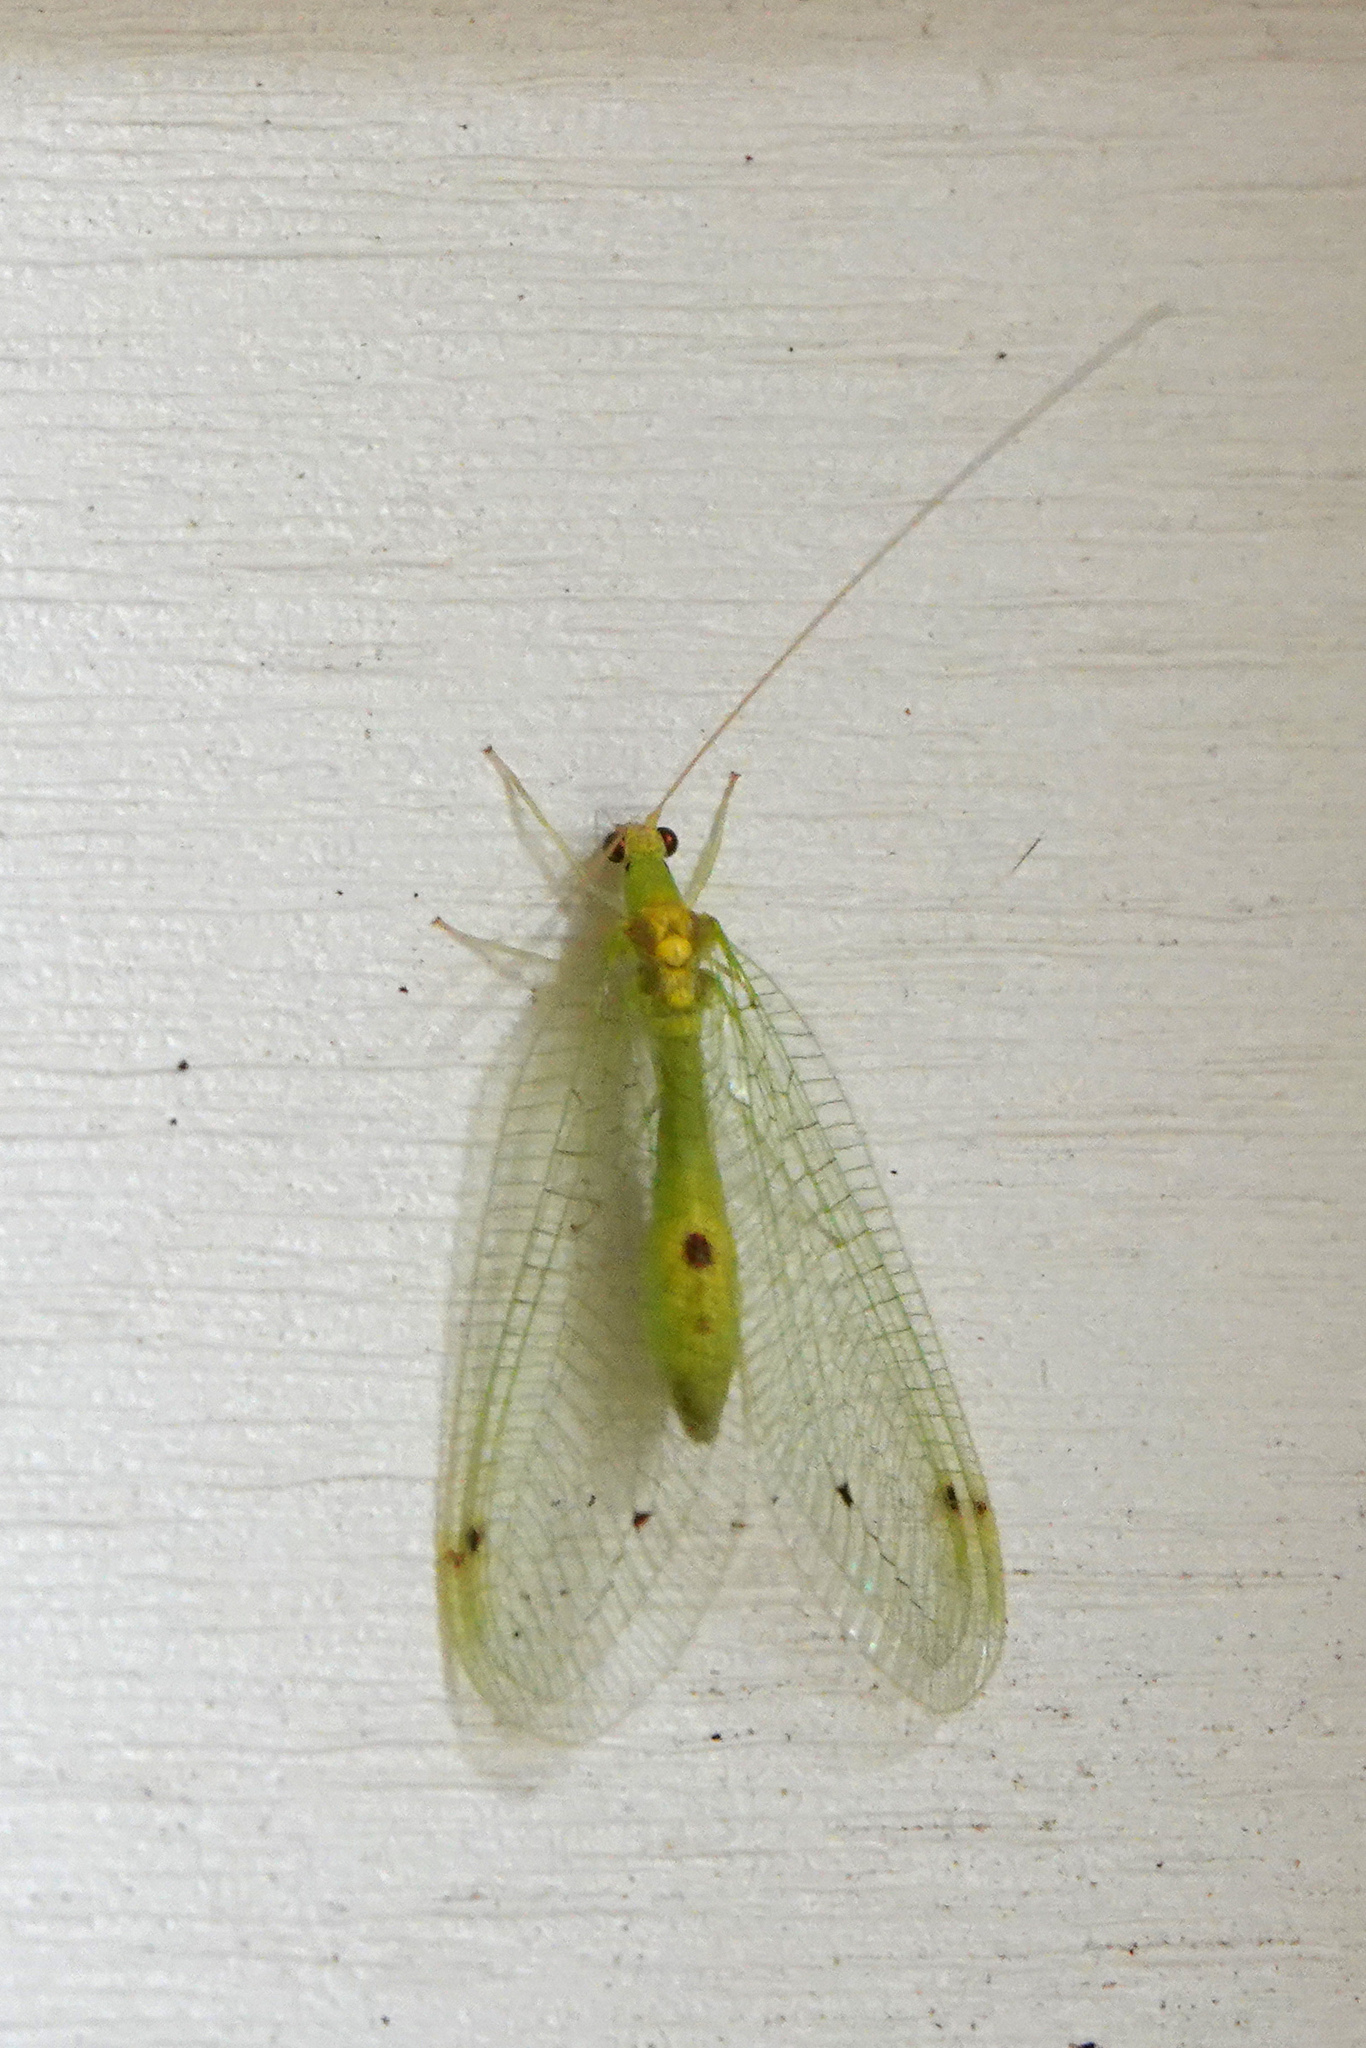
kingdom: Animalia
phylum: Arthropoda
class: Insecta
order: Neuroptera
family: Chrysopidae
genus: Leucochrysa
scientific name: Leucochrysa insularis
